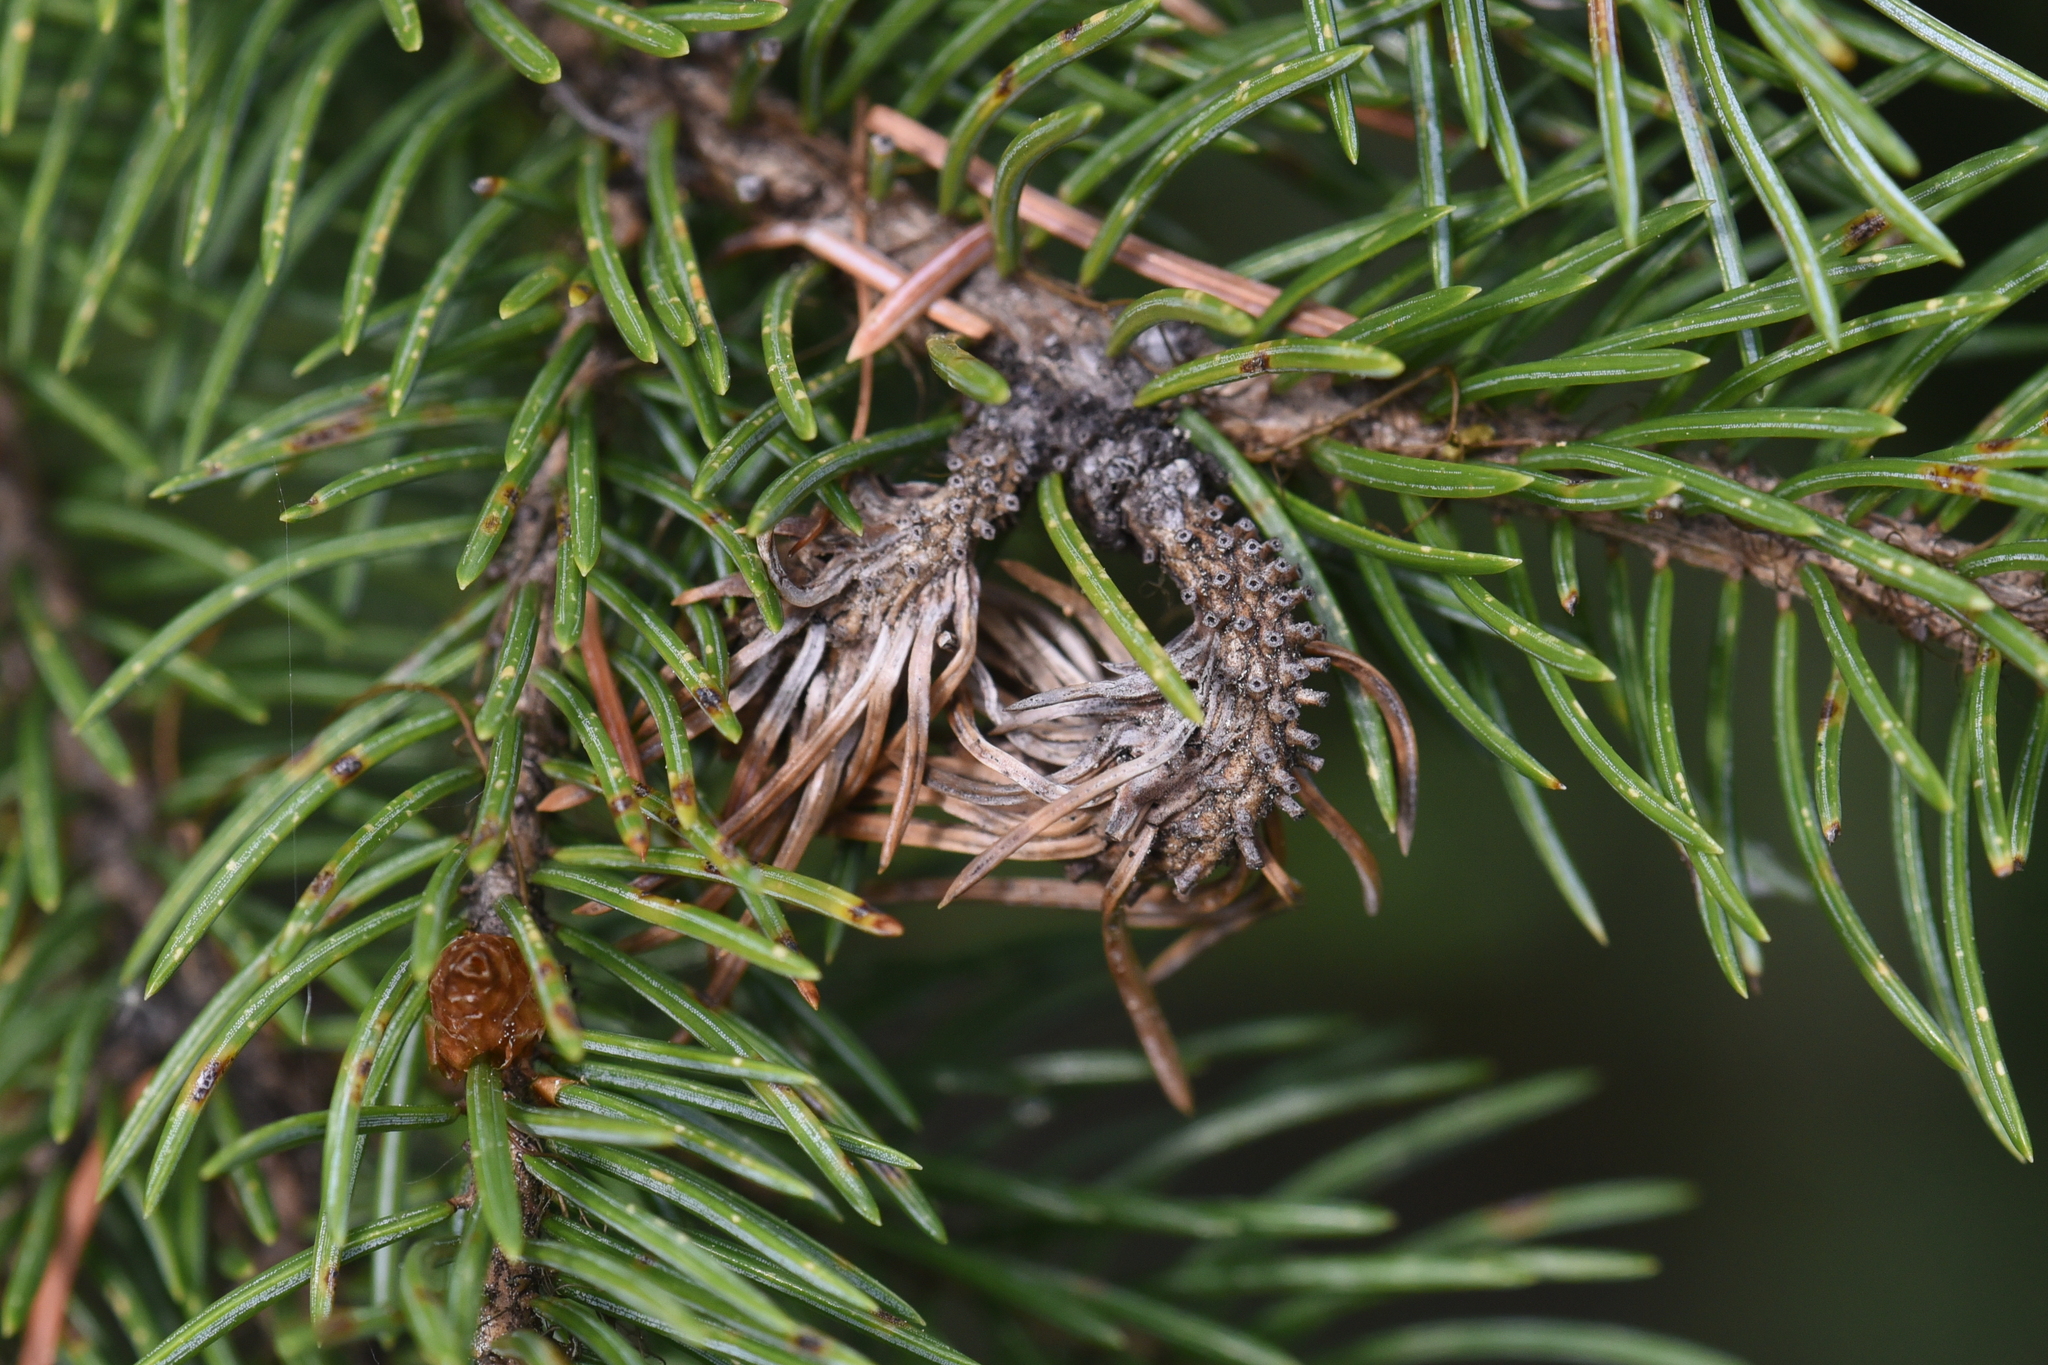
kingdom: Animalia
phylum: Arthropoda
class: Insecta
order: Hemiptera
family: Adelgidae
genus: Adelges
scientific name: Adelges cooleyi
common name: Cooley spruce gall adelgid
